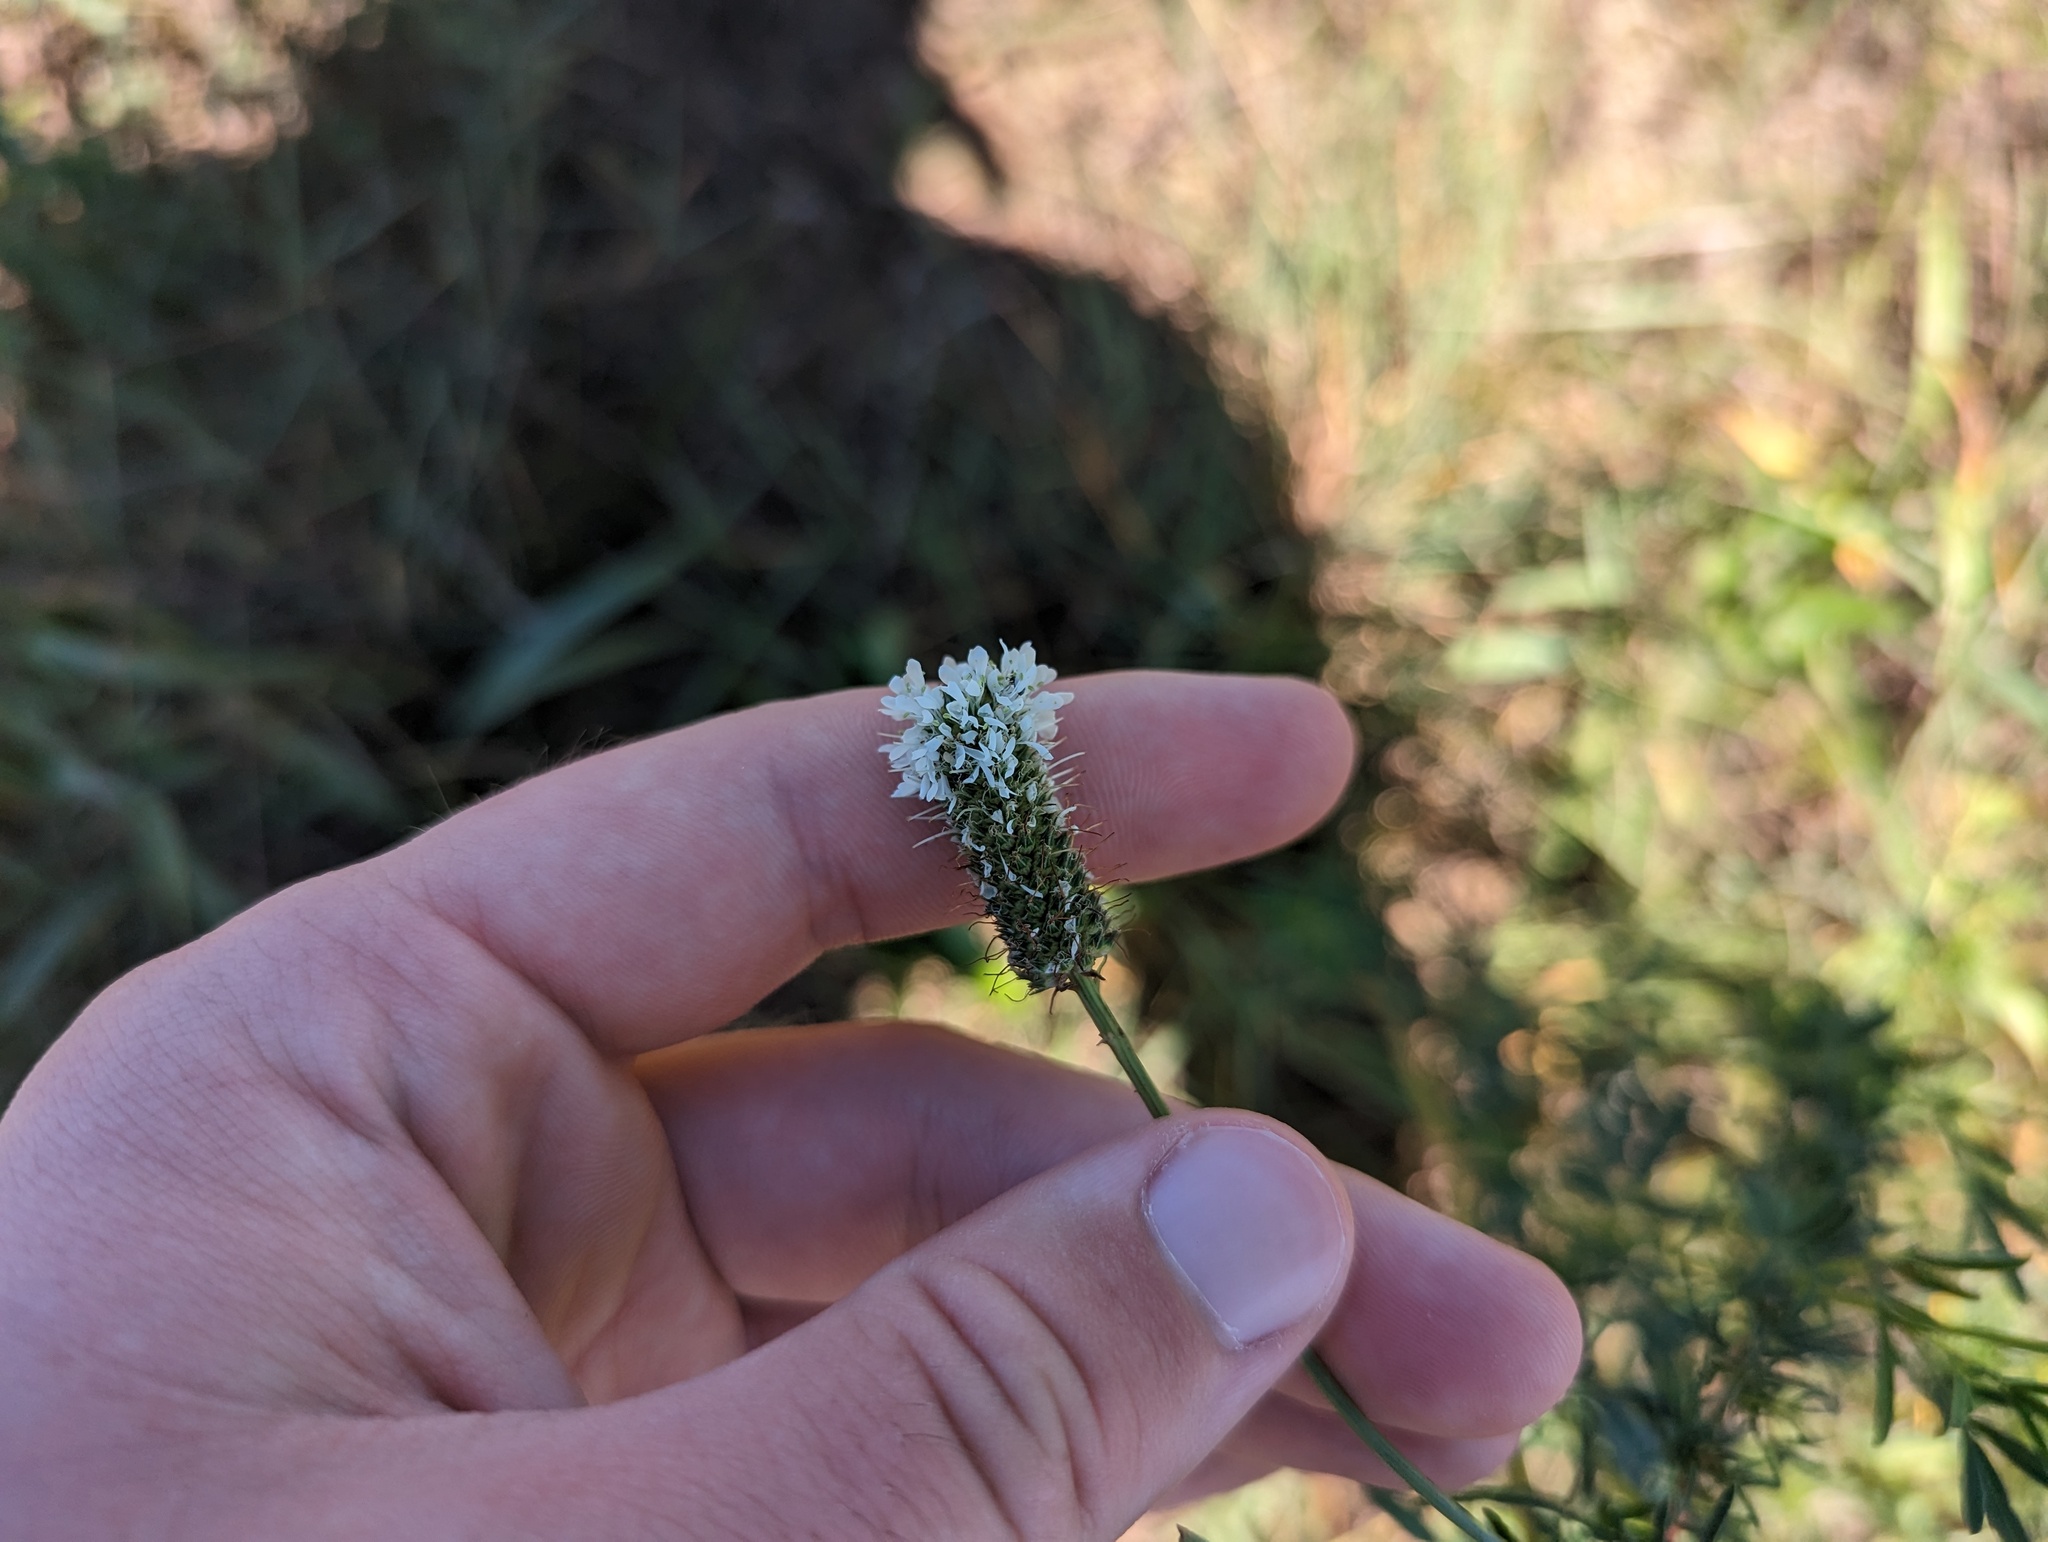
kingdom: Plantae
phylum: Tracheophyta
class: Magnoliopsida
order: Fabales
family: Fabaceae
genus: Dalea
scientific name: Dalea candida
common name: White prairie-clover
